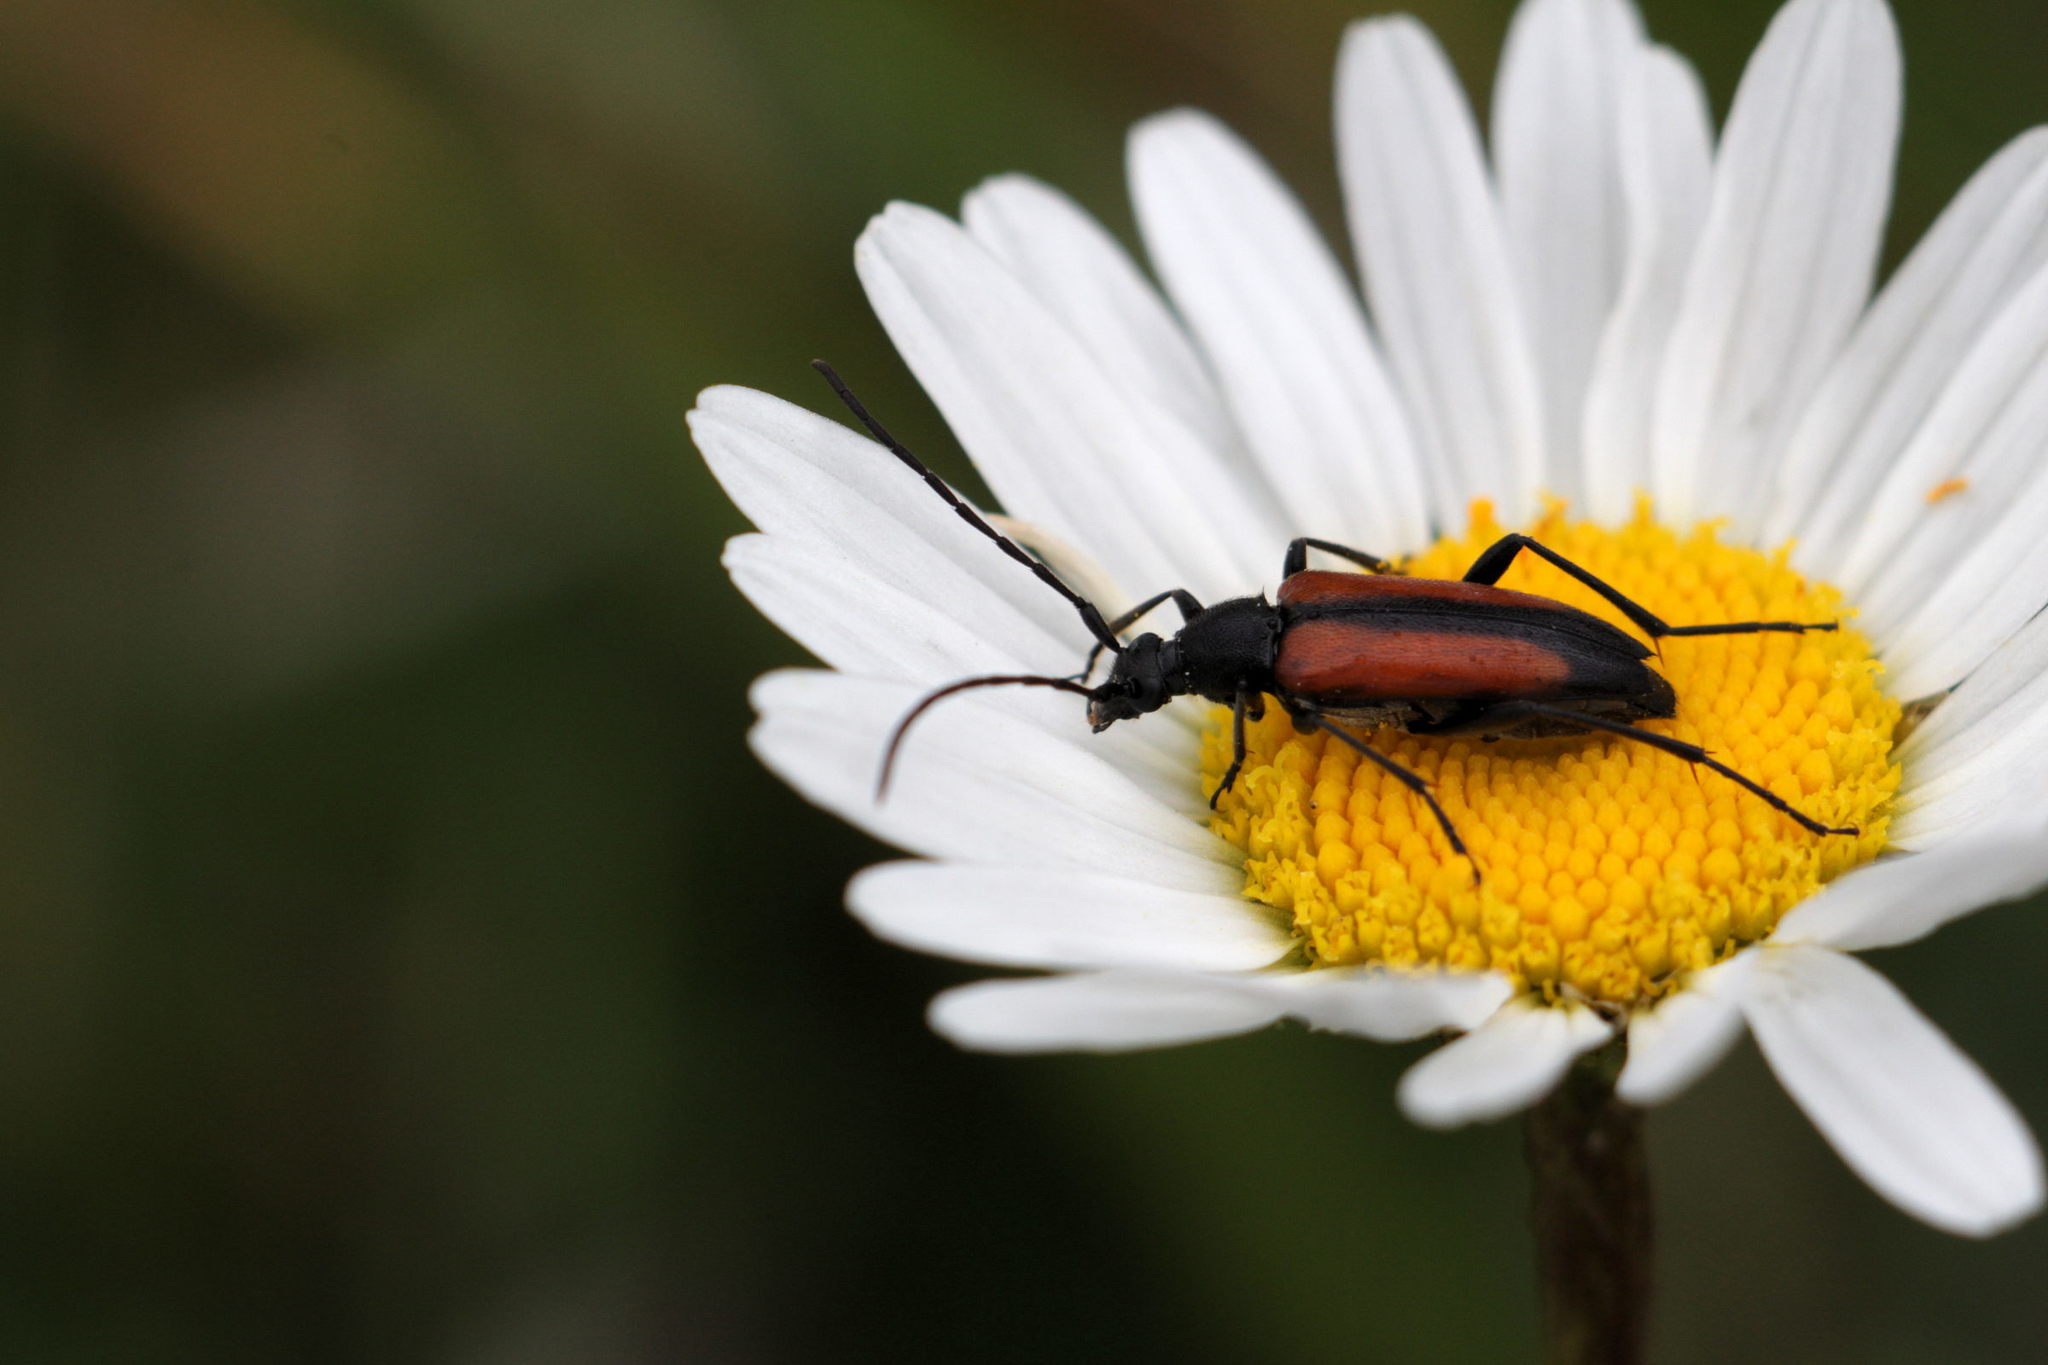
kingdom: Animalia
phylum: Arthropoda
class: Insecta
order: Coleoptera
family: Cerambycidae
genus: Stenurella
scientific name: Stenurella melanura
